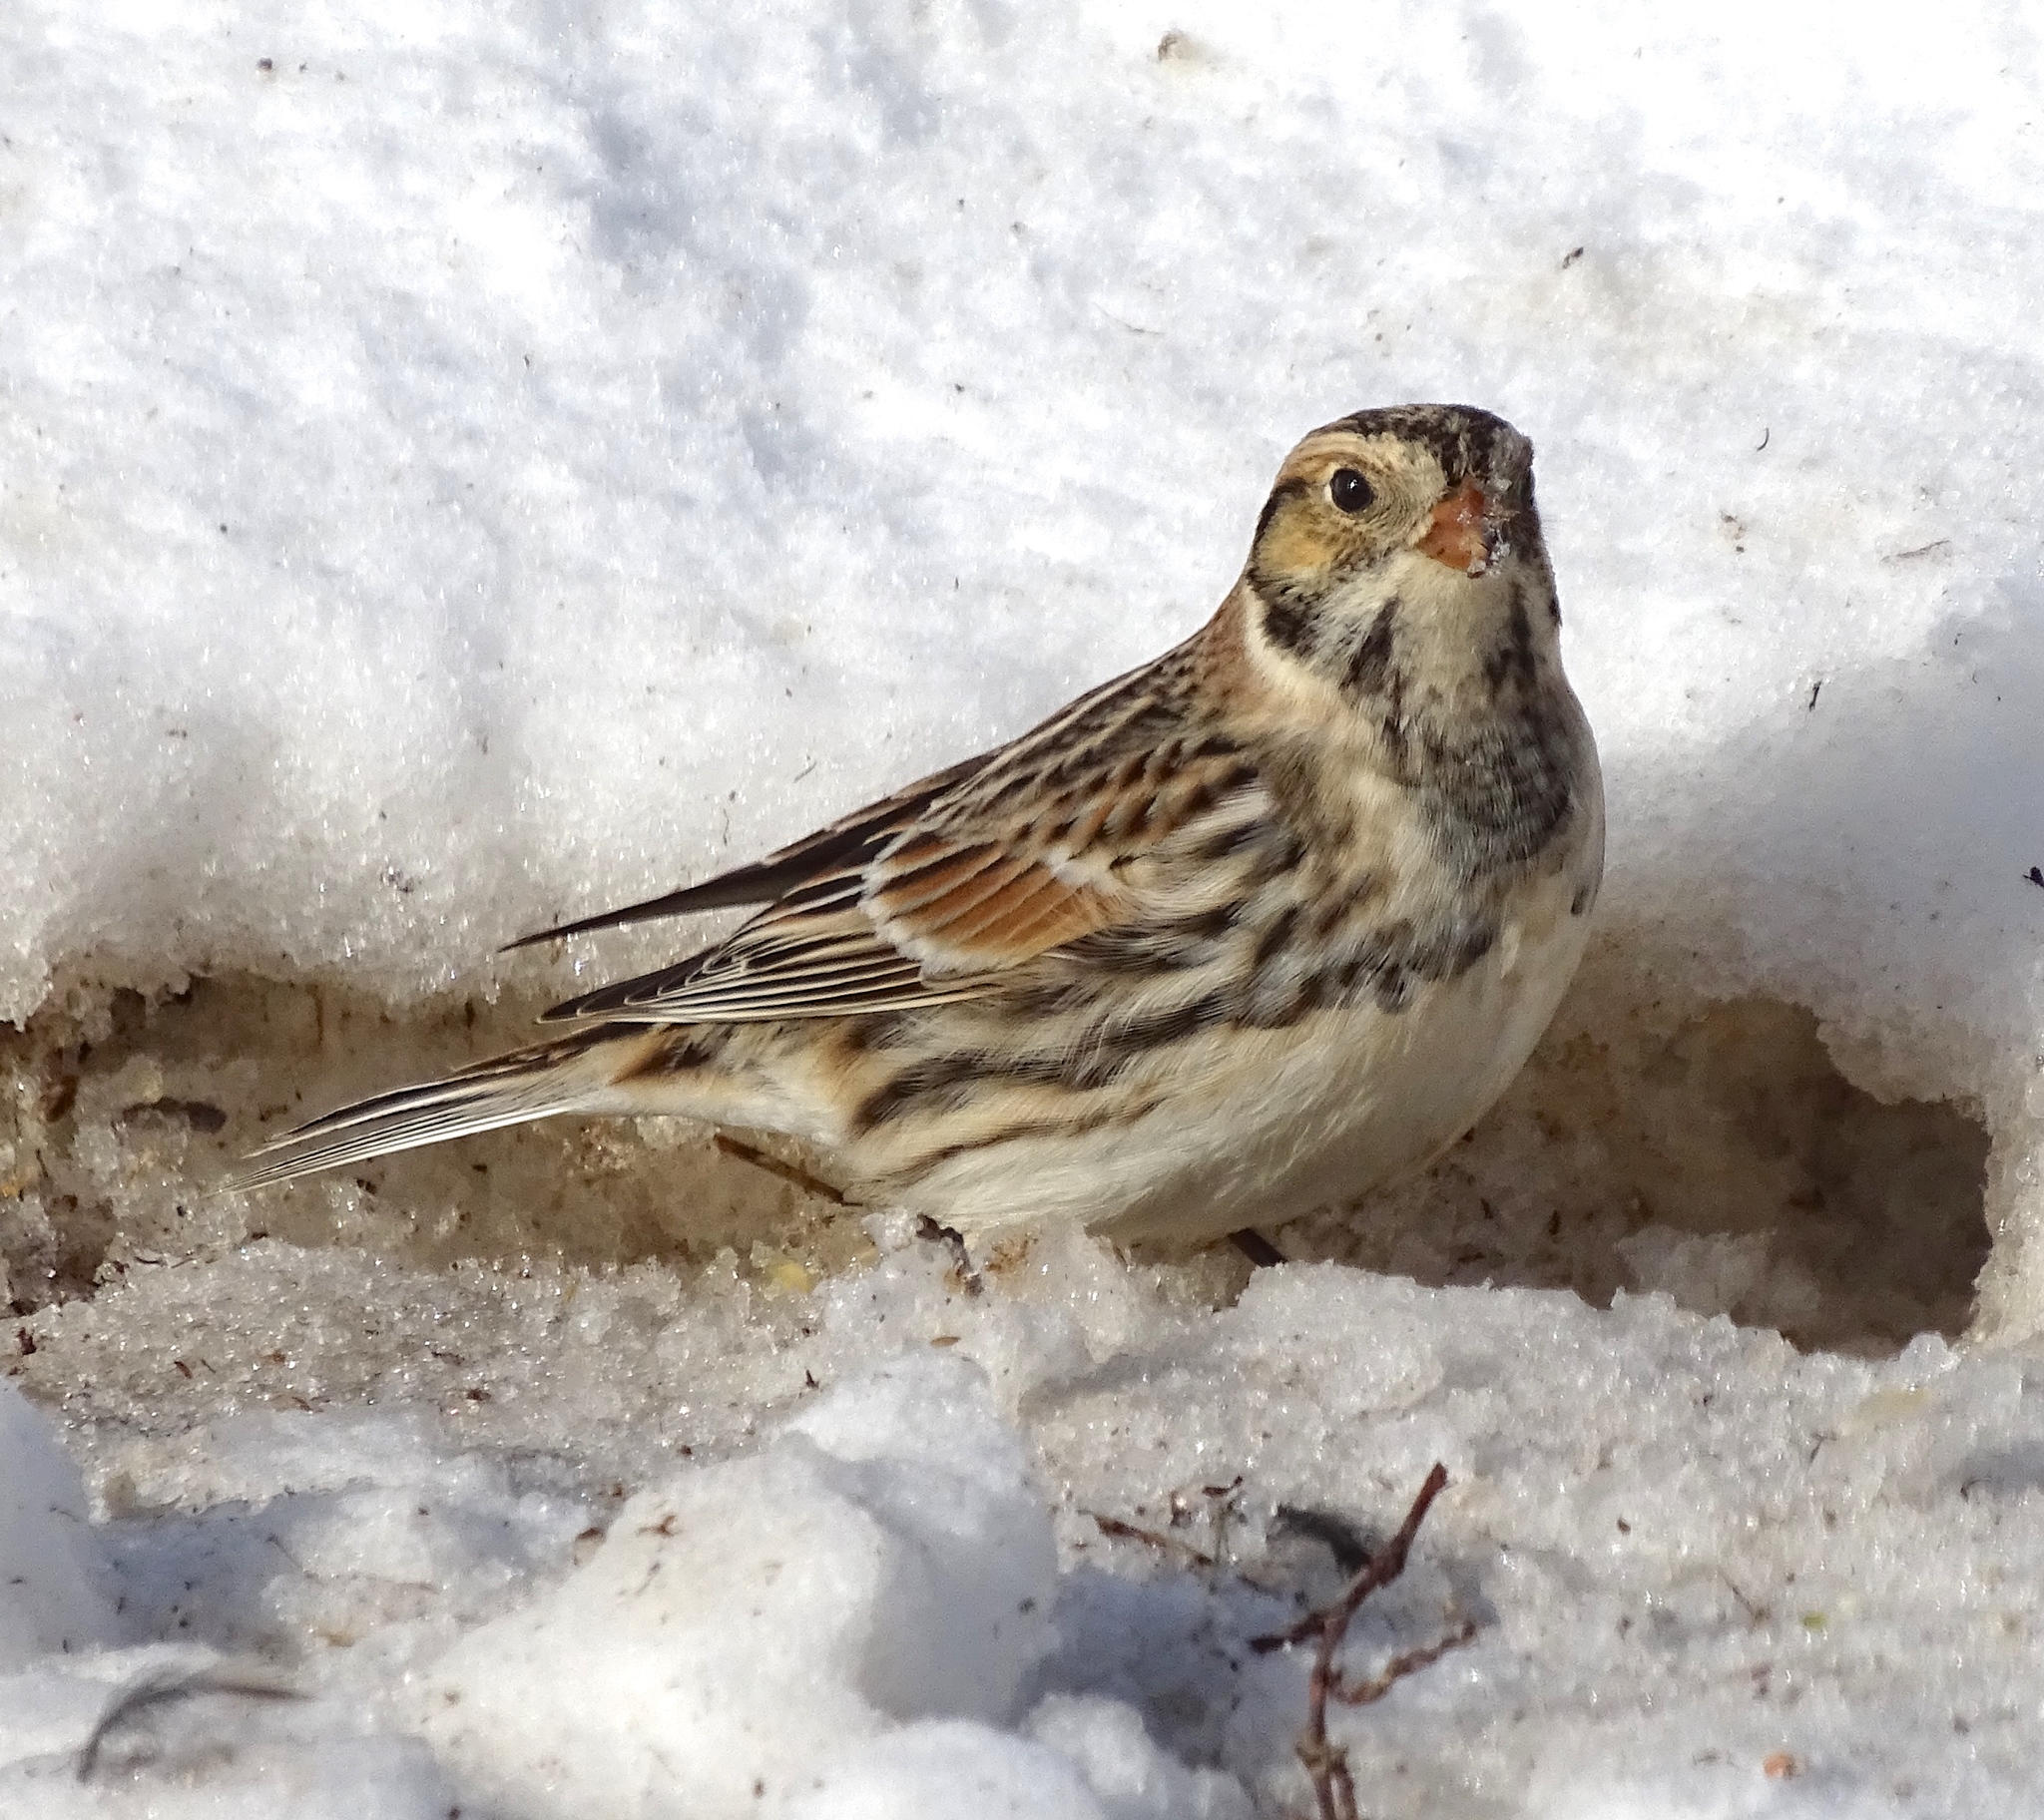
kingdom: Animalia
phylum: Chordata
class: Aves
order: Passeriformes
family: Calcariidae
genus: Calcarius
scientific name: Calcarius lapponicus
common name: Lapland longspur
